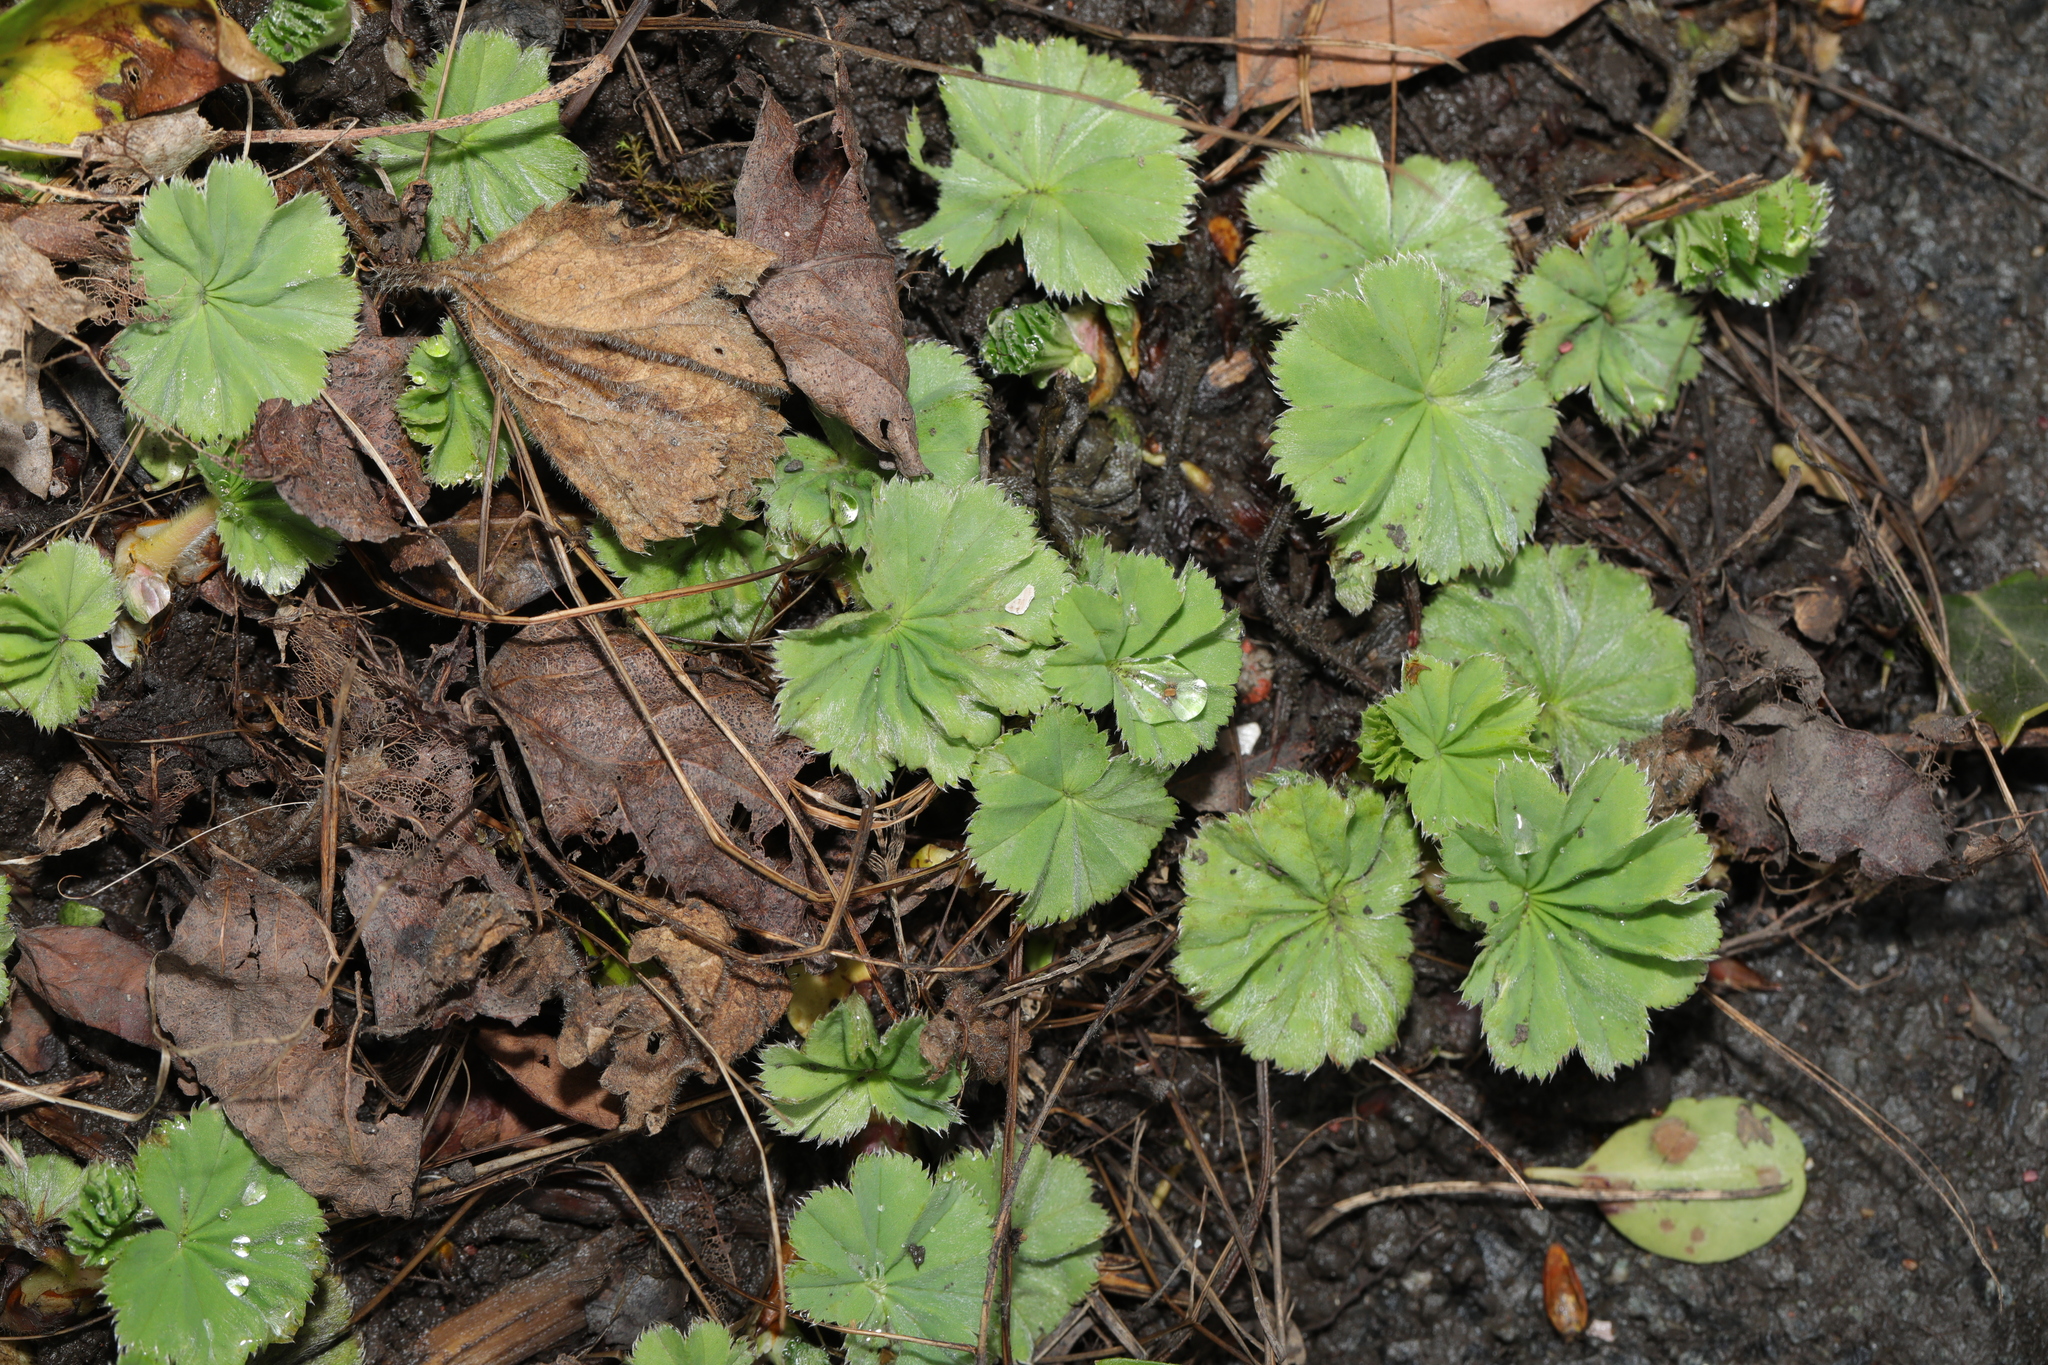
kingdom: Plantae
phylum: Tracheophyta
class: Magnoliopsida
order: Rosales
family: Rosaceae
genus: Alchemilla
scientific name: Alchemilla mollis
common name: Lady's-mantle
